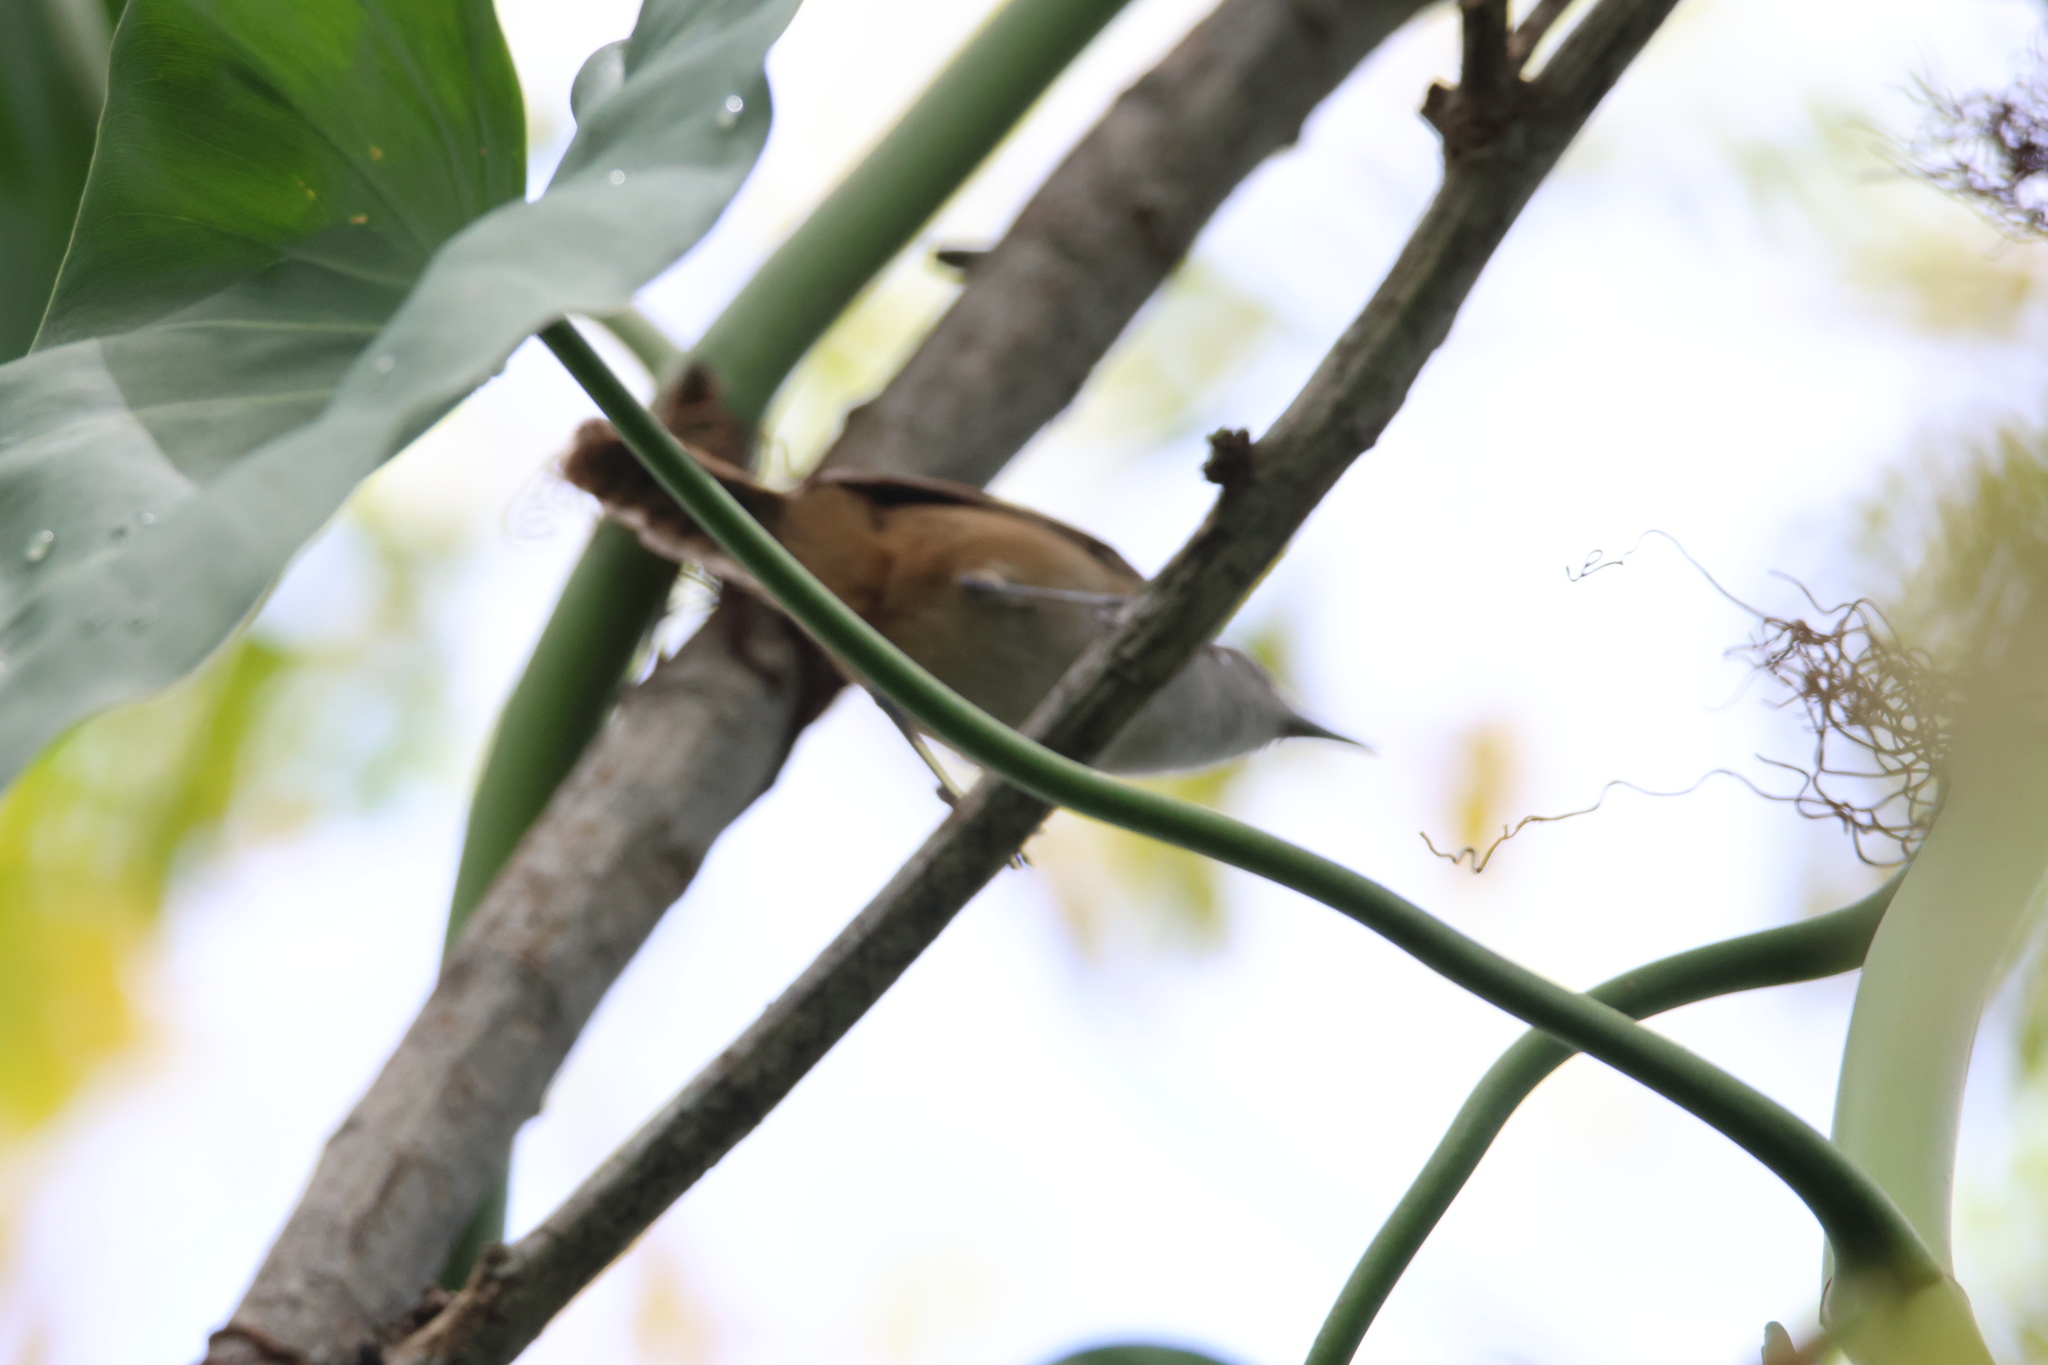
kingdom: Animalia
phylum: Chordata
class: Aves
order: Passeriformes
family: Troglodytidae
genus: Cantorchilus
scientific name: Cantorchilus modestus
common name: Cabanis's wren
